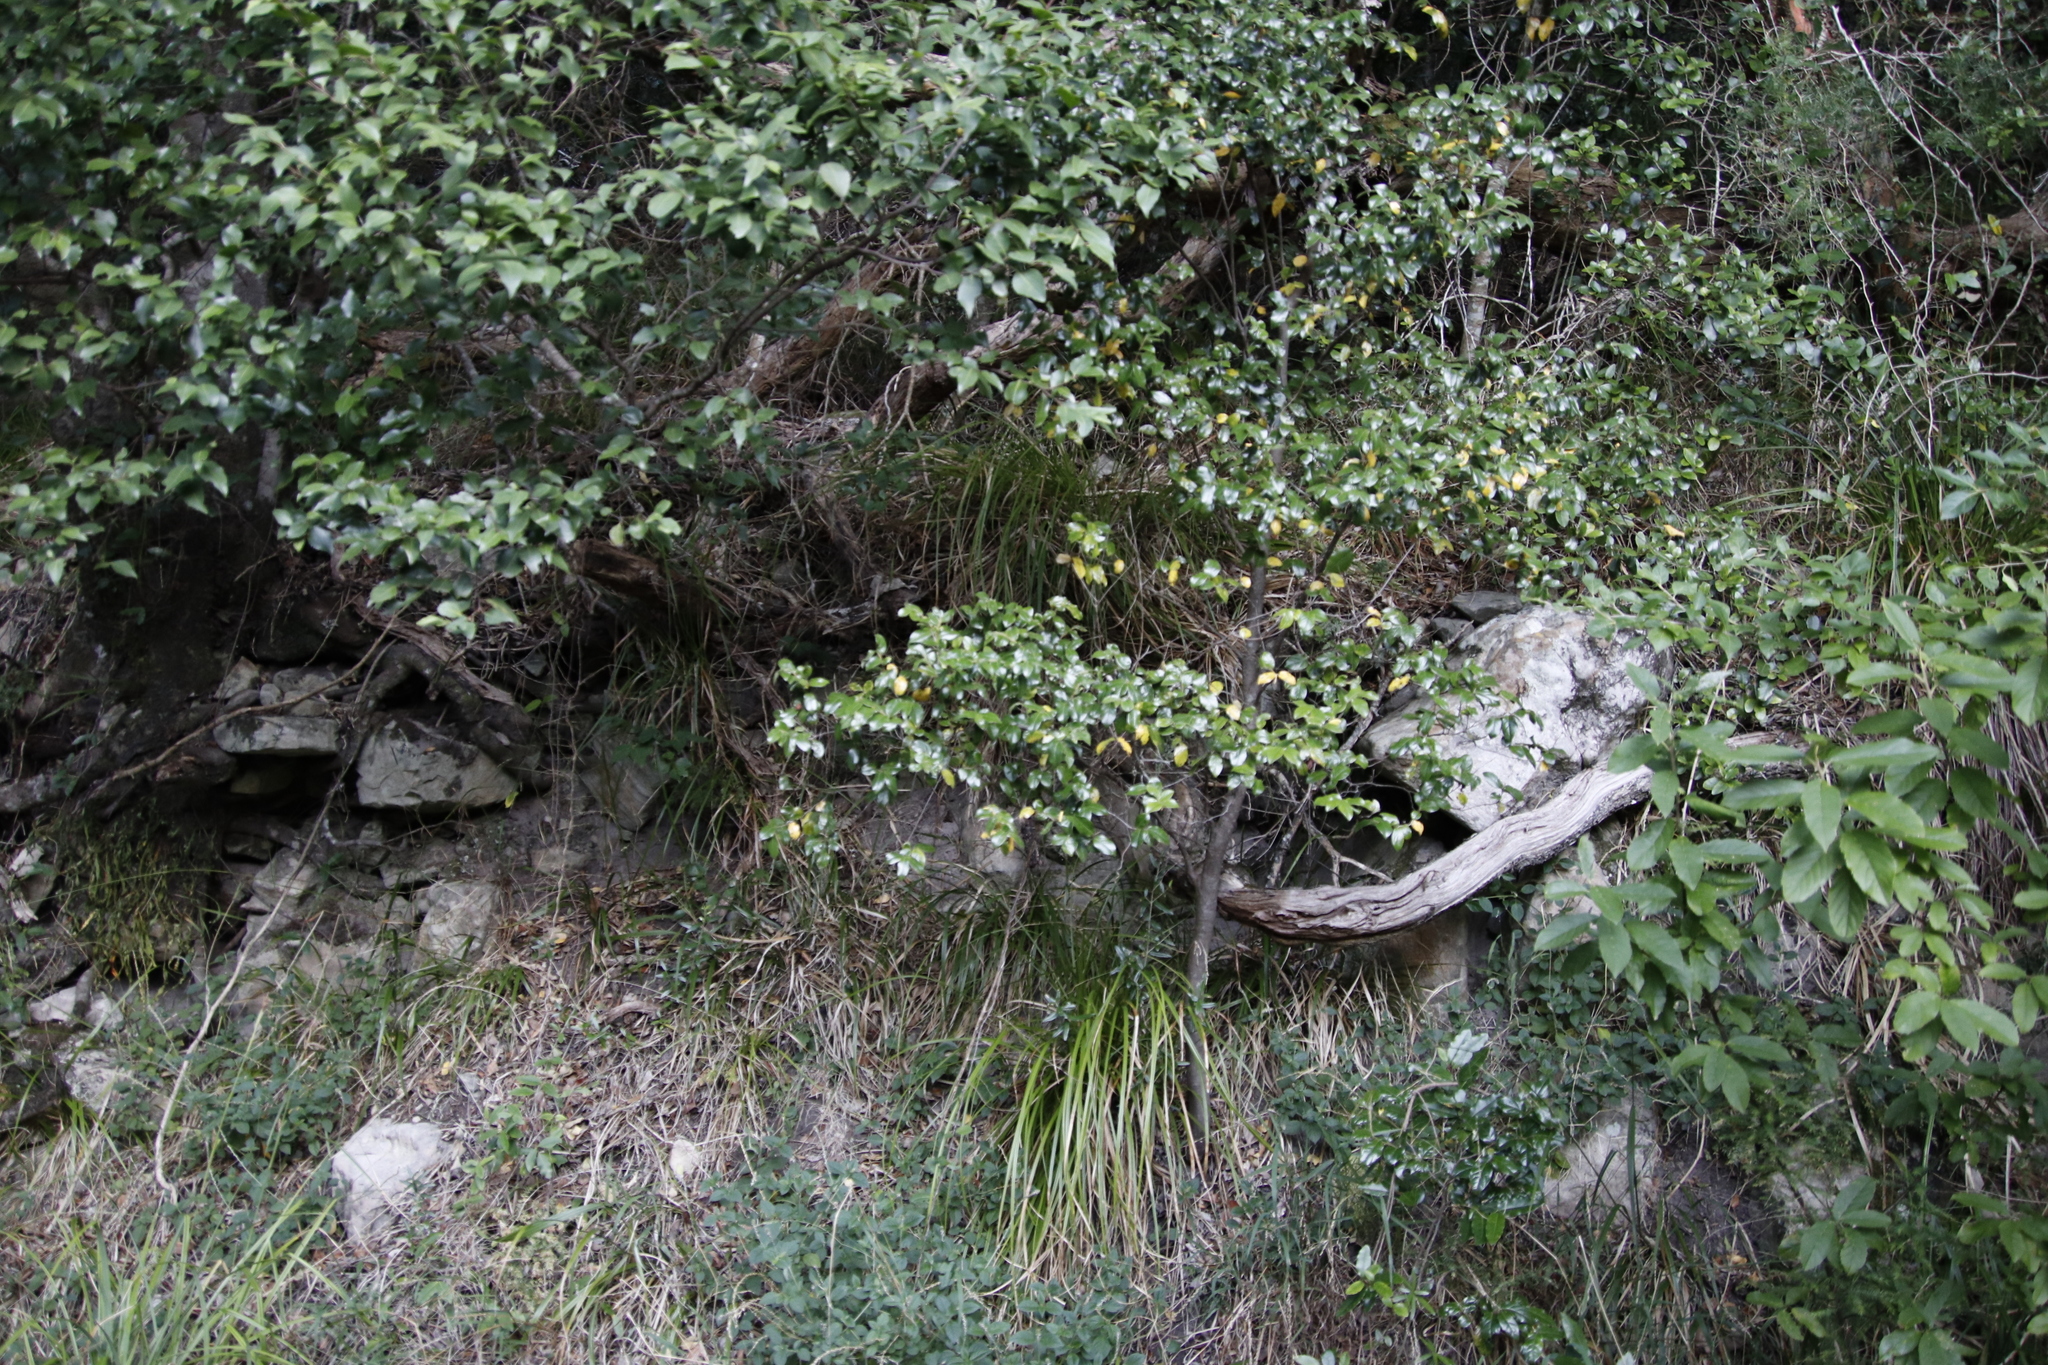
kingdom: Plantae
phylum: Tracheophyta
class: Magnoliopsida
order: Ericales
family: Ebenaceae
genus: Diospyros
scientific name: Diospyros whyteana
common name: Bladder-nut
